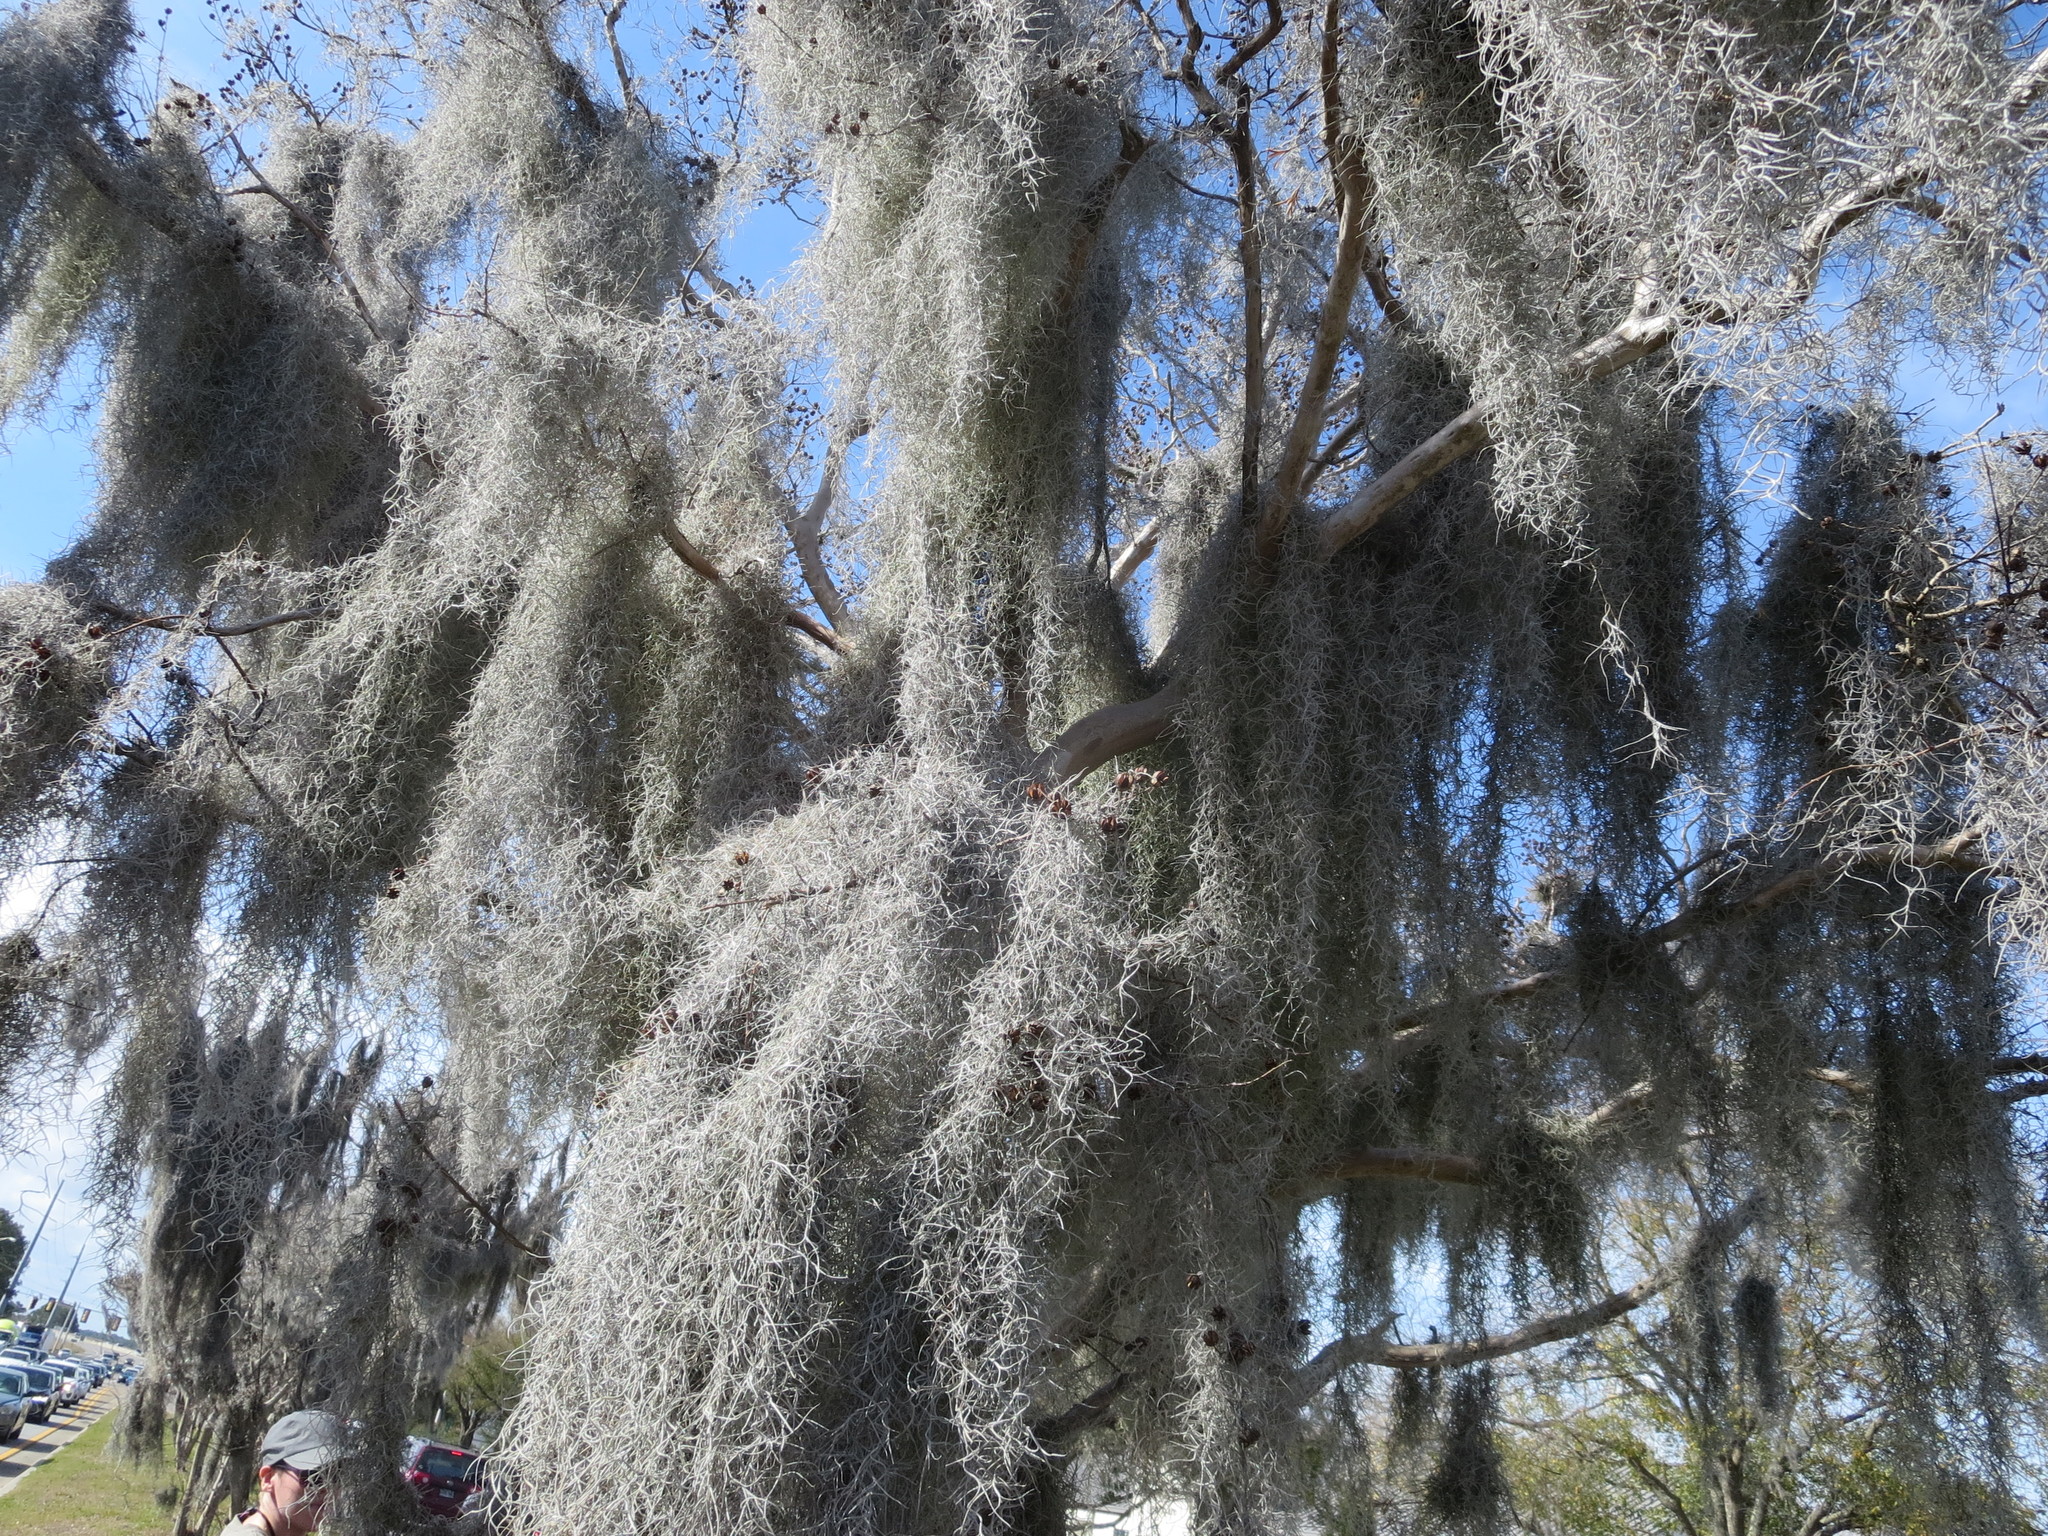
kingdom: Plantae
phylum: Tracheophyta
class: Liliopsida
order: Poales
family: Bromeliaceae
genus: Tillandsia
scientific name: Tillandsia usneoides
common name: Spanish moss
